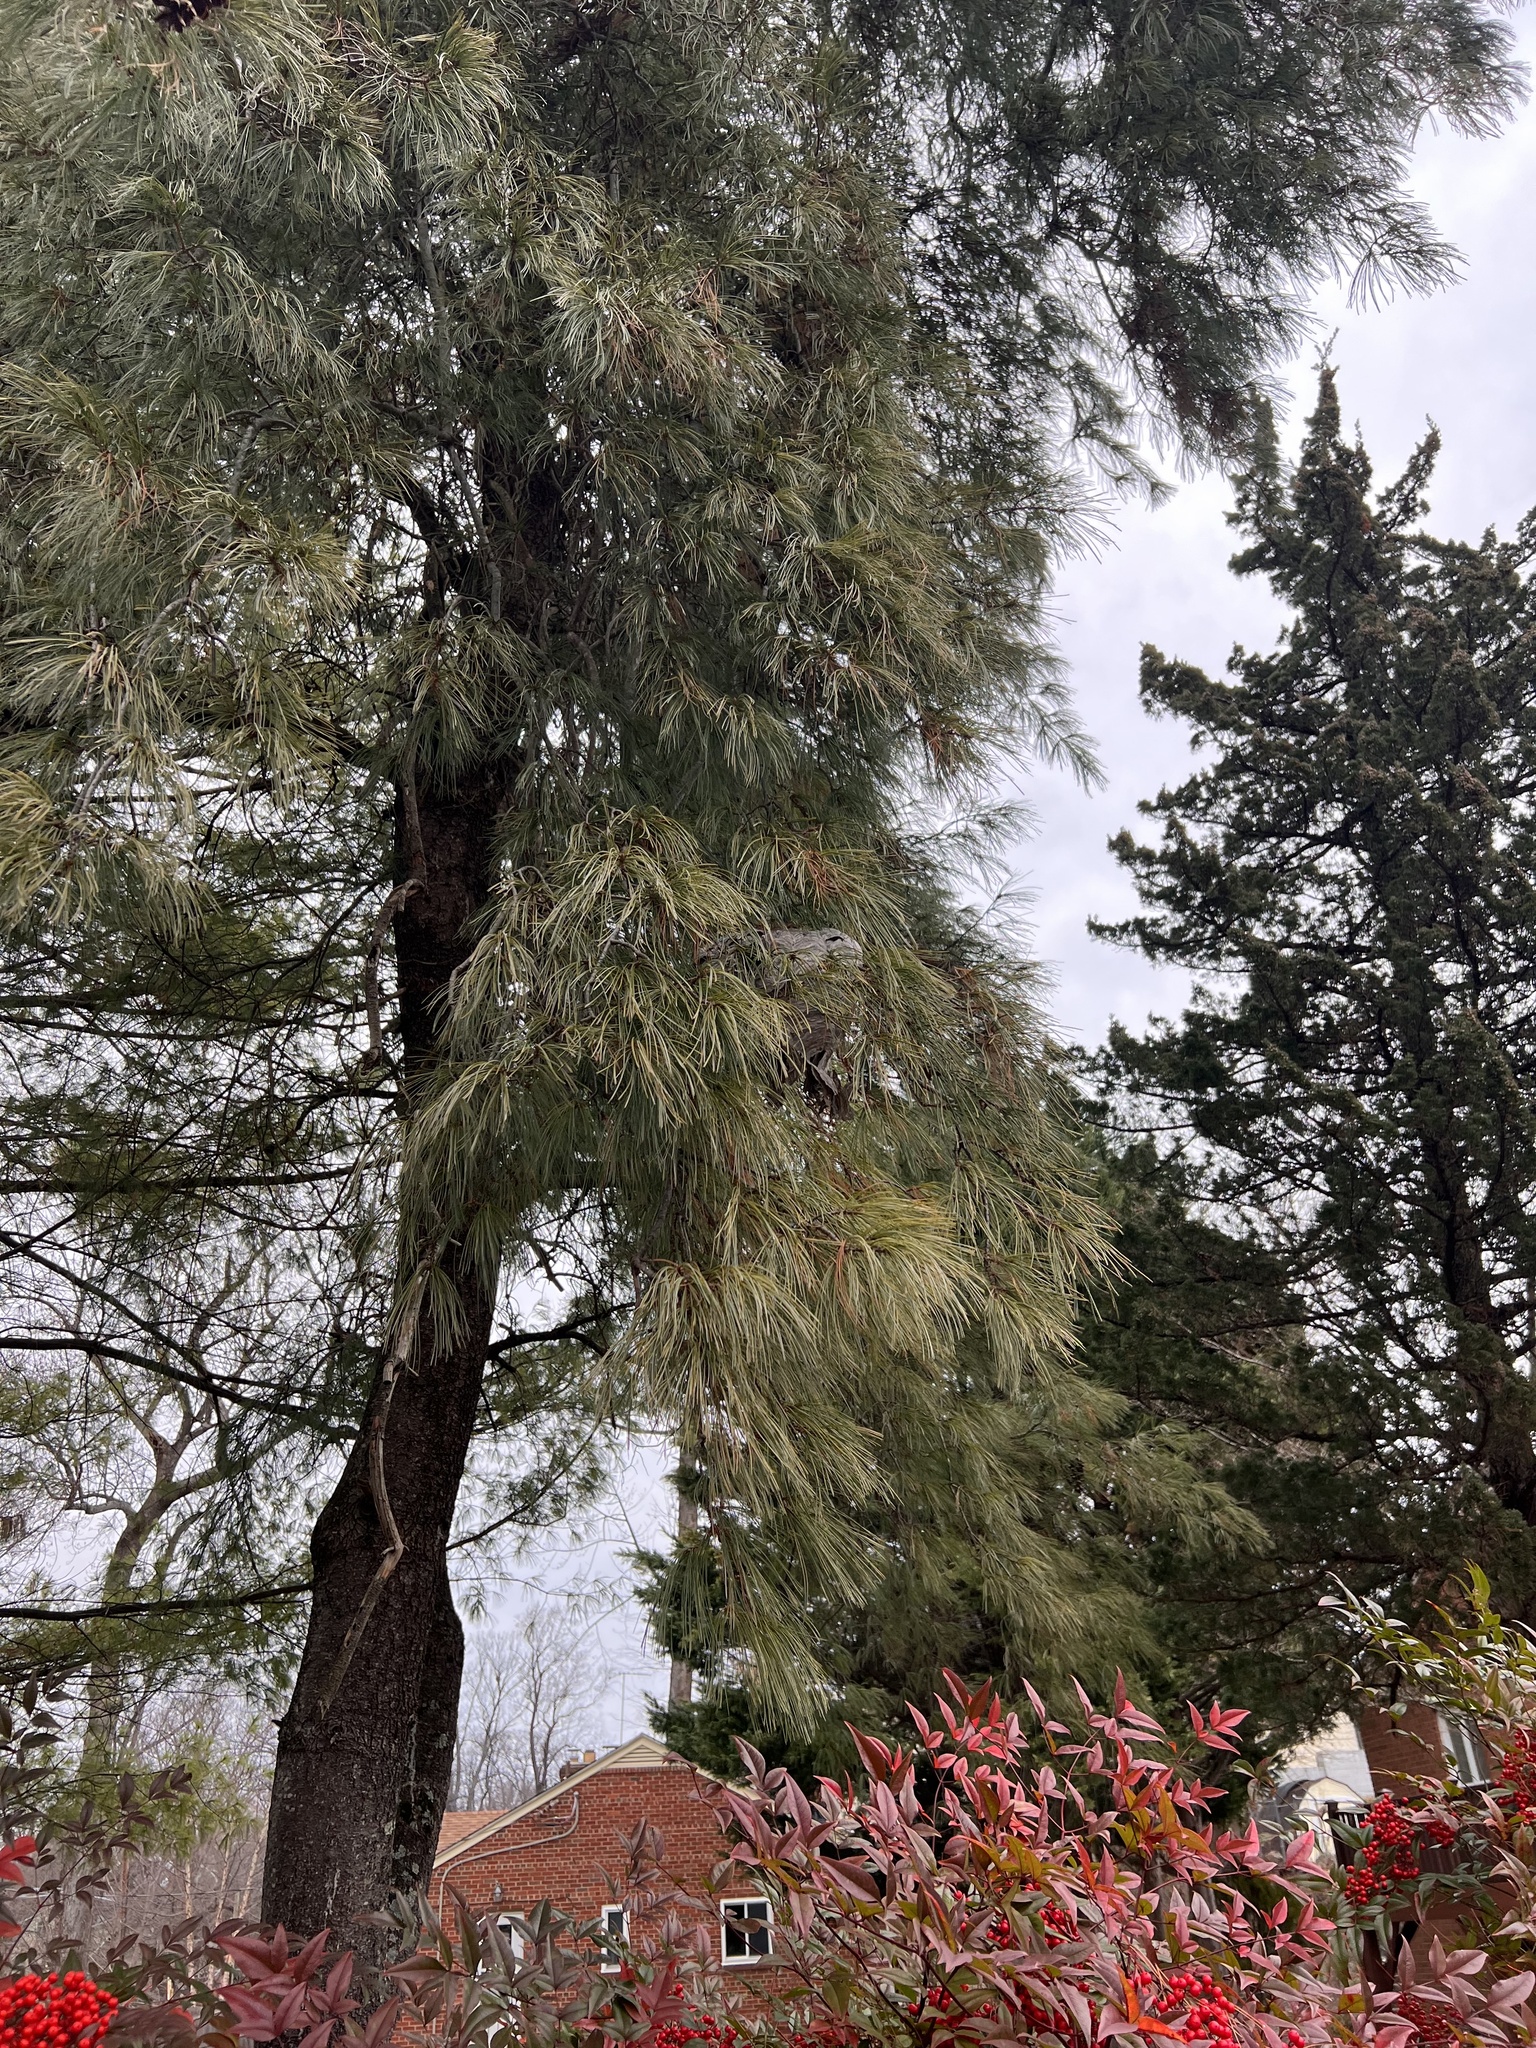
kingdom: Animalia
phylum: Arthropoda
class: Insecta
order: Hymenoptera
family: Vespidae
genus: Dolichovespula
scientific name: Dolichovespula maculata
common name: Bald-faced hornet
